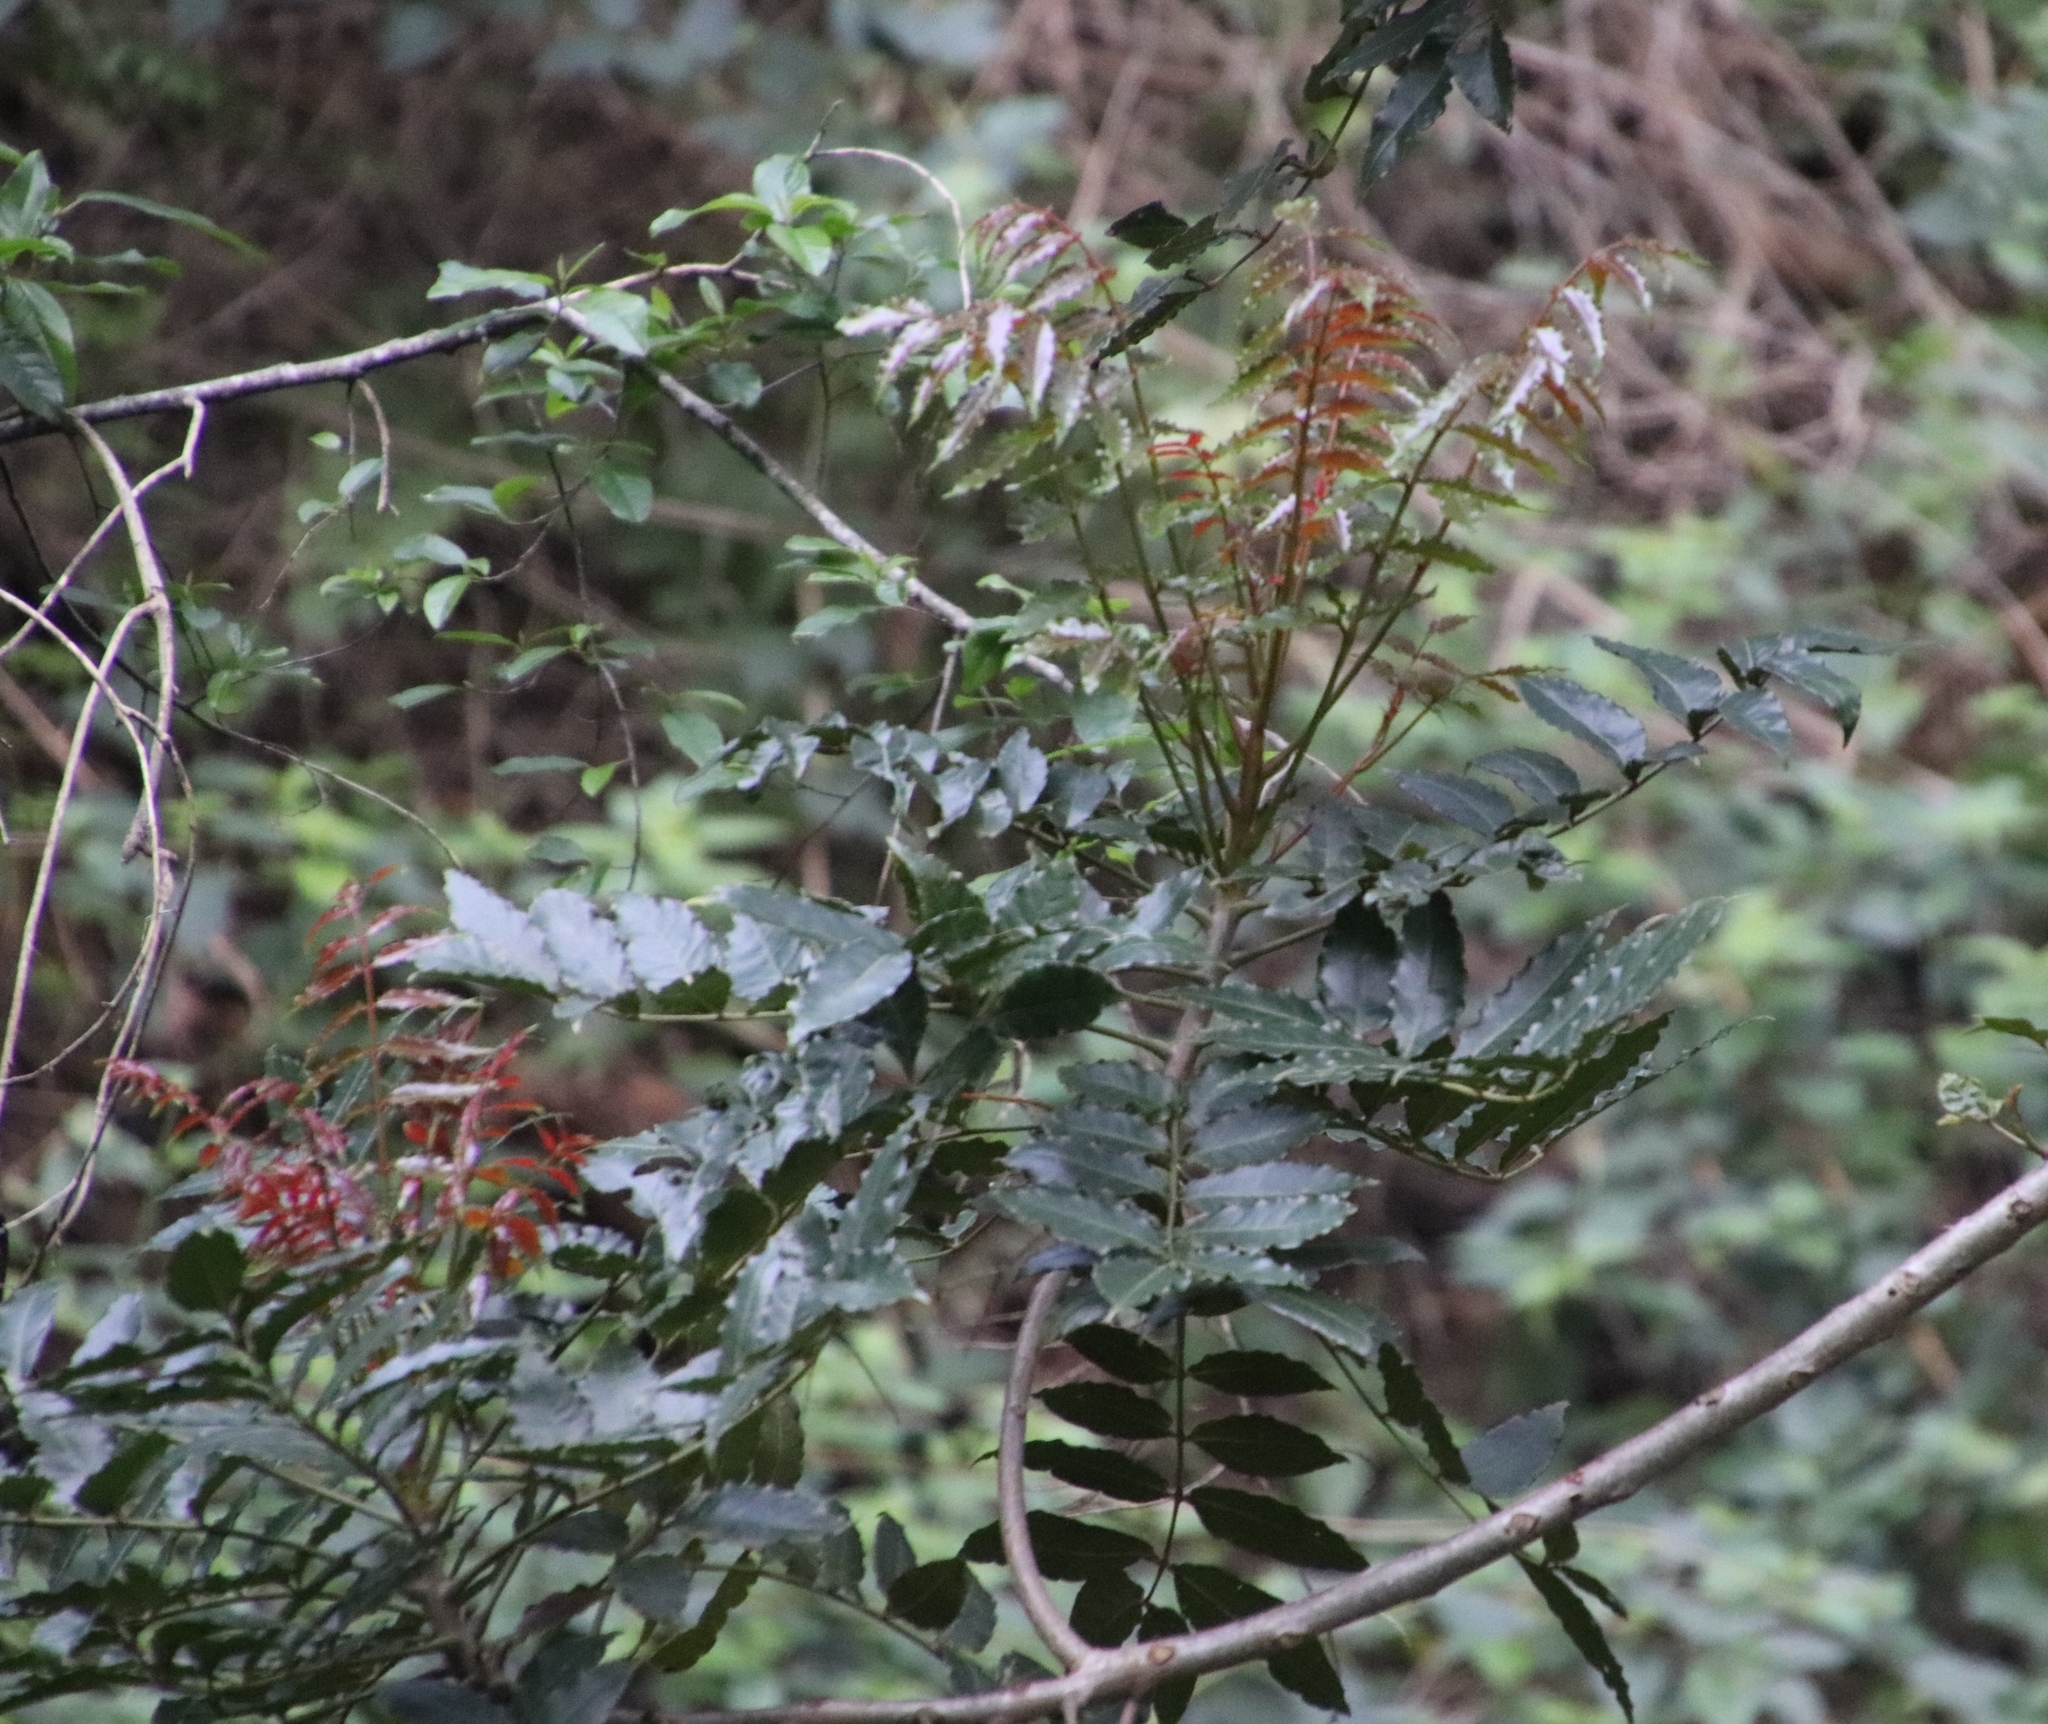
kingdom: Plantae
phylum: Tracheophyta
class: Magnoliopsida
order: Sapindales
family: Anacardiaceae
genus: Harpephyllum
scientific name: Harpephyllum caffrum
